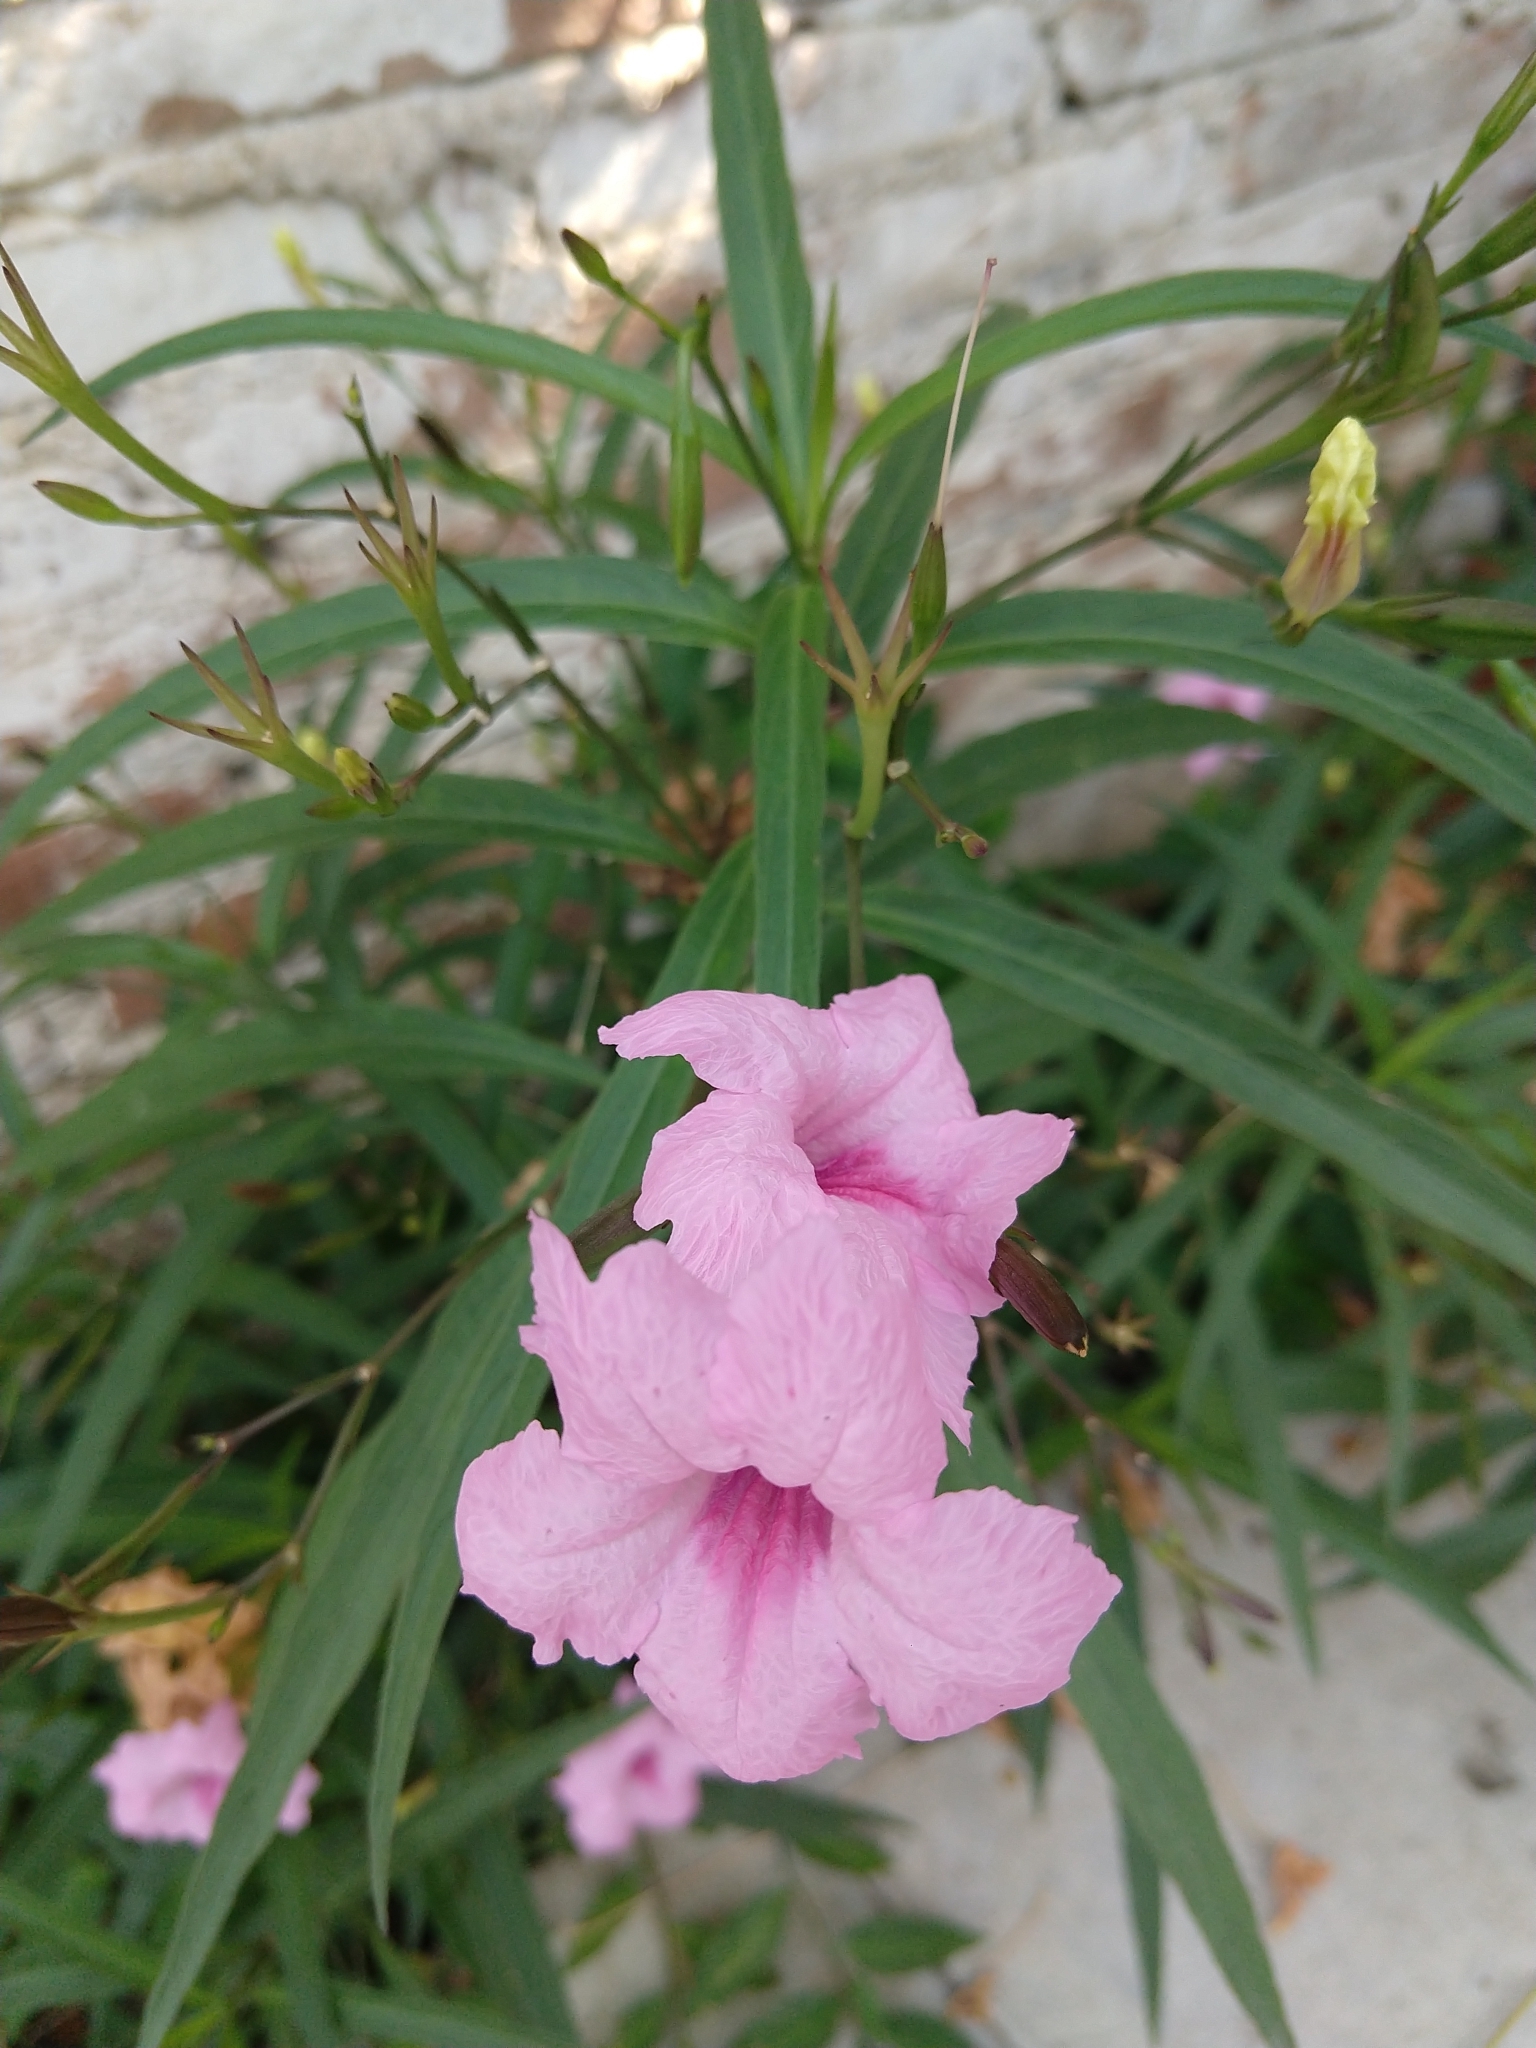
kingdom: Plantae
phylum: Tracheophyta
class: Magnoliopsida
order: Lamiales
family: Acanthaceae
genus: Ruellia
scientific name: Ruellia simplex
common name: Softseed wild petunia
